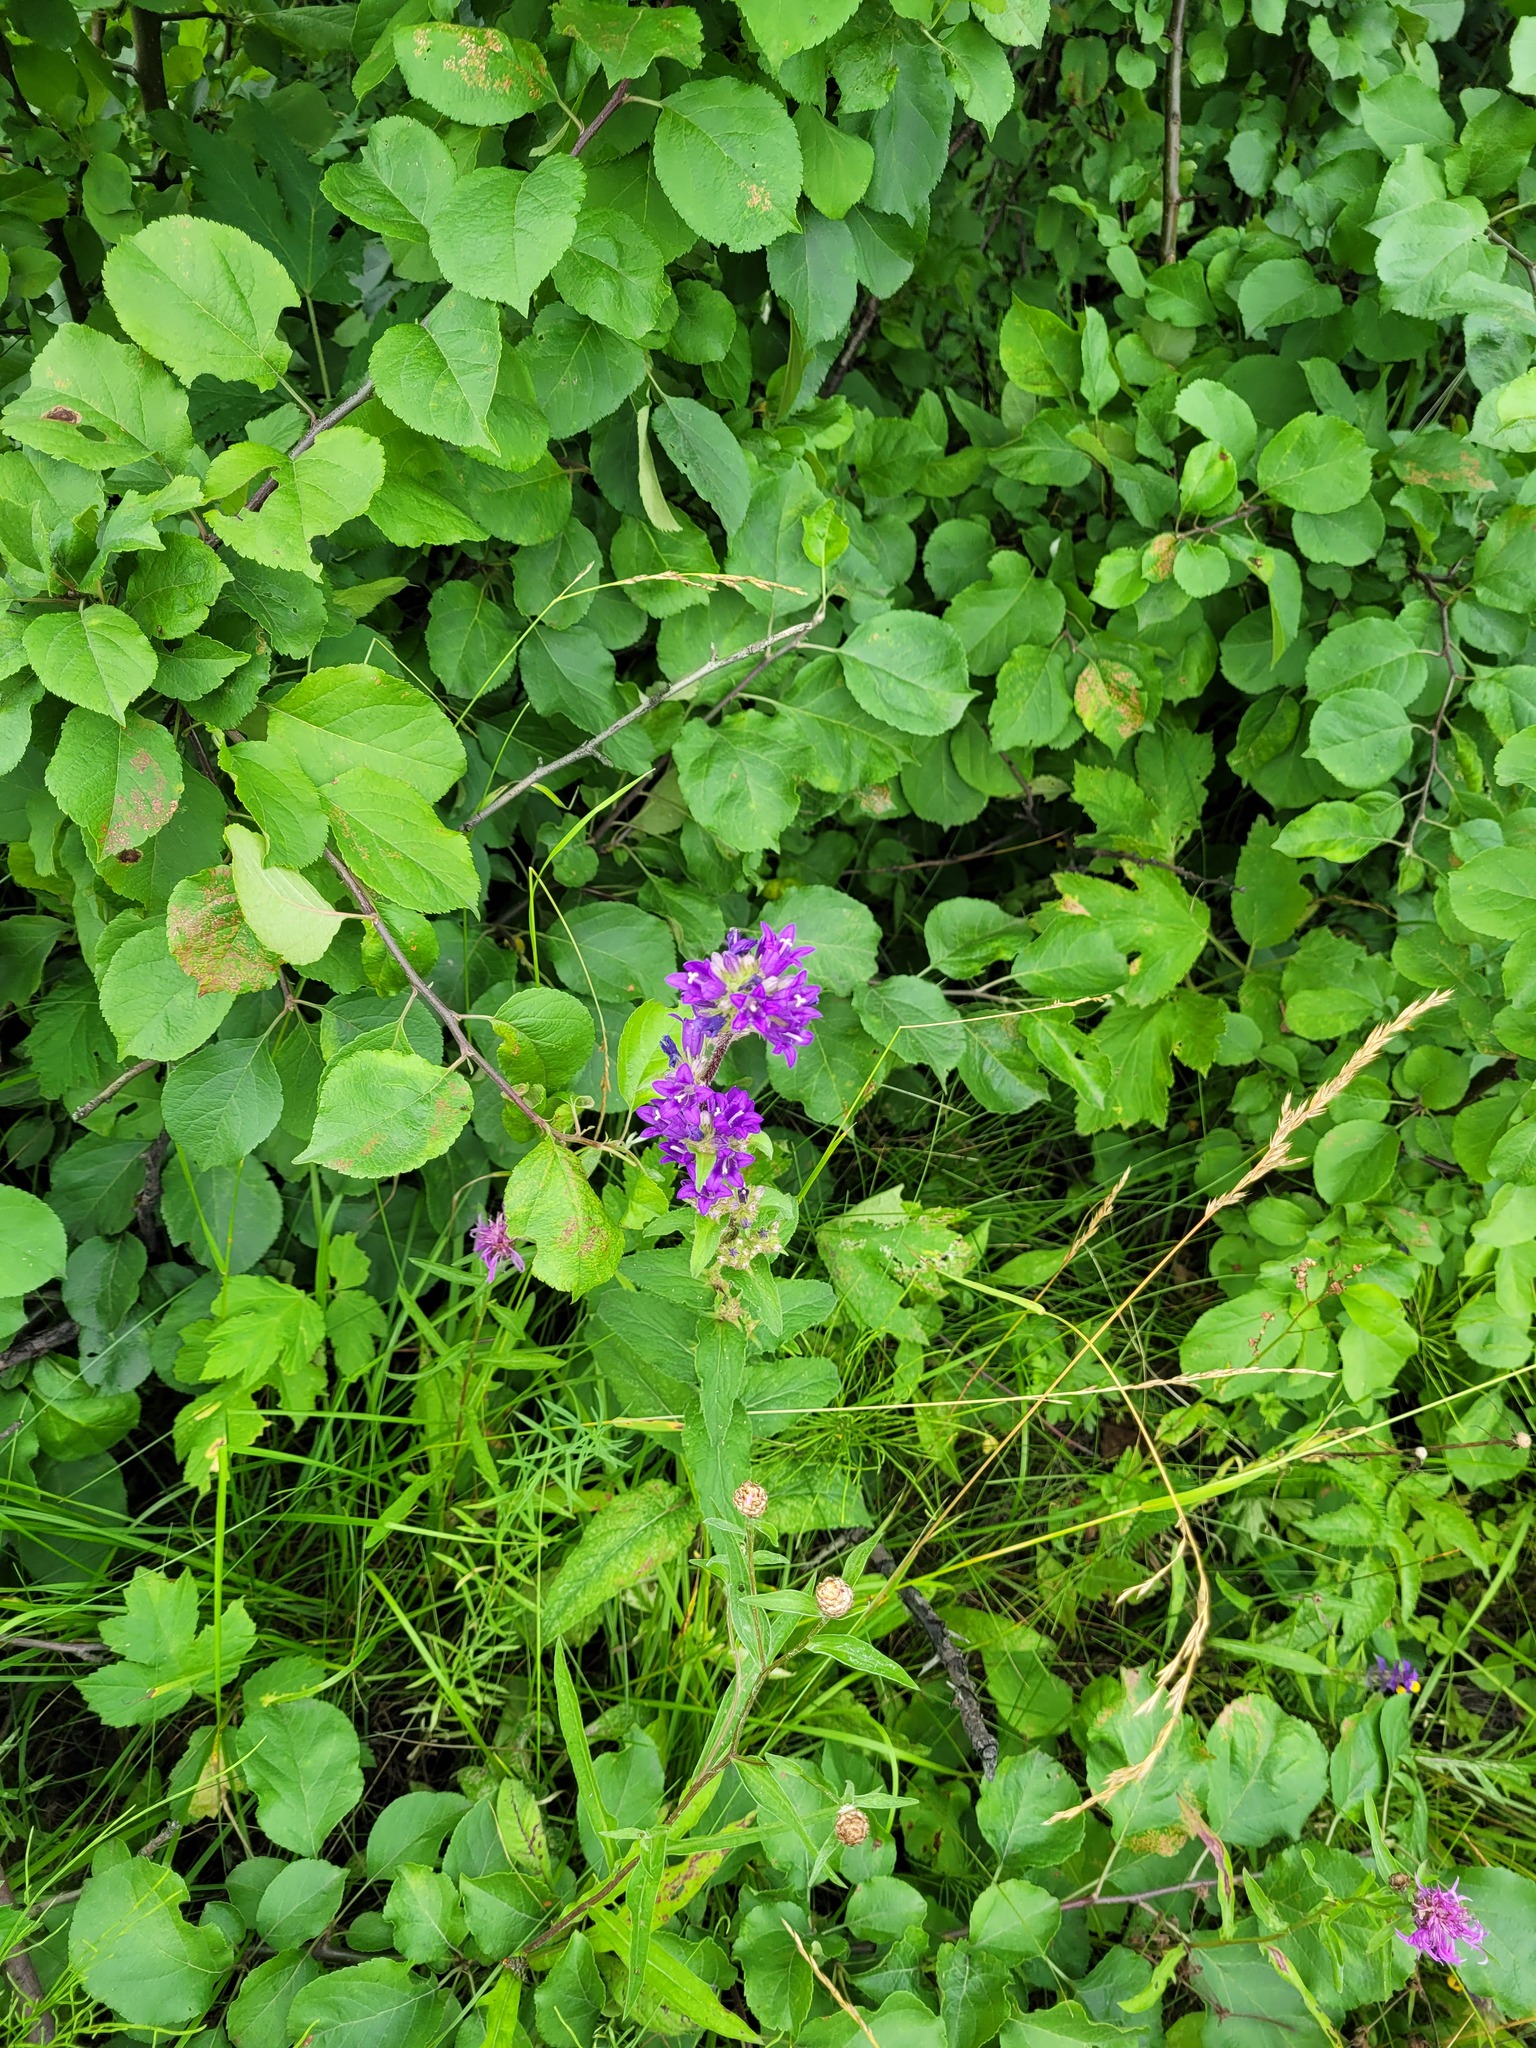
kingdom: Plantae
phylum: Tracheophyta
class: Magnoliopsida
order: Asterales
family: Campanulaceae
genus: Campanula
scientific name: Campanula glomerata
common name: Clustered bellflower
